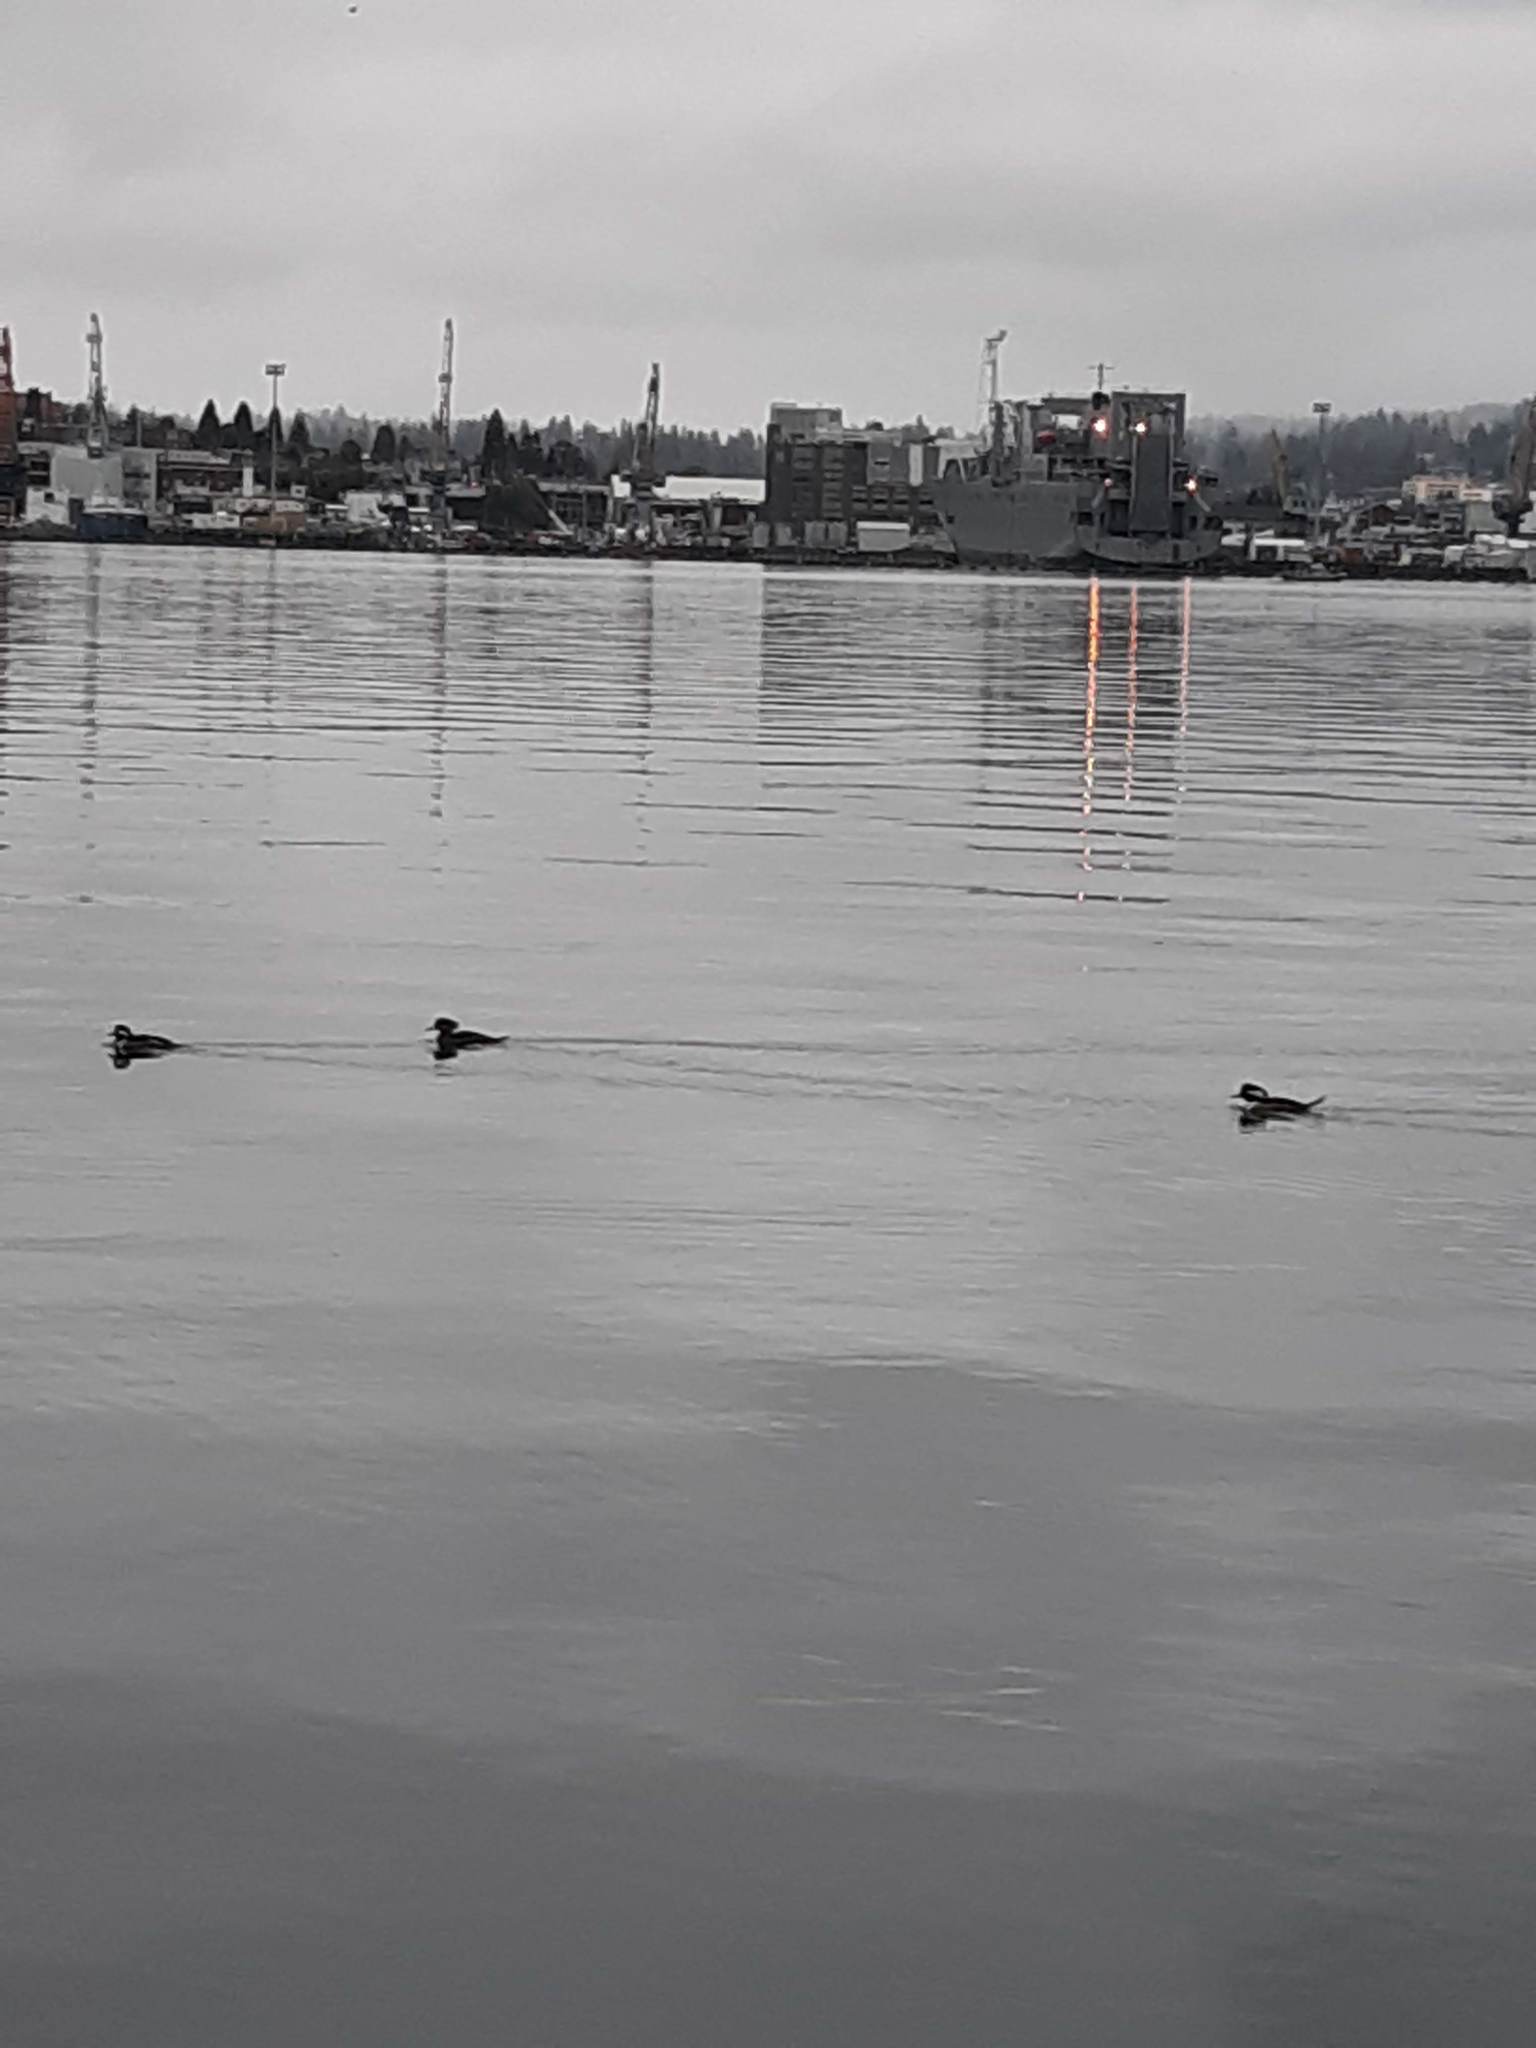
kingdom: Animalia
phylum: Chordata
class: Aves
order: Anseriformes
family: Anatidae
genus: Lophodytes
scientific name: Lophodytes cucullatus
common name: Hooded merganser
